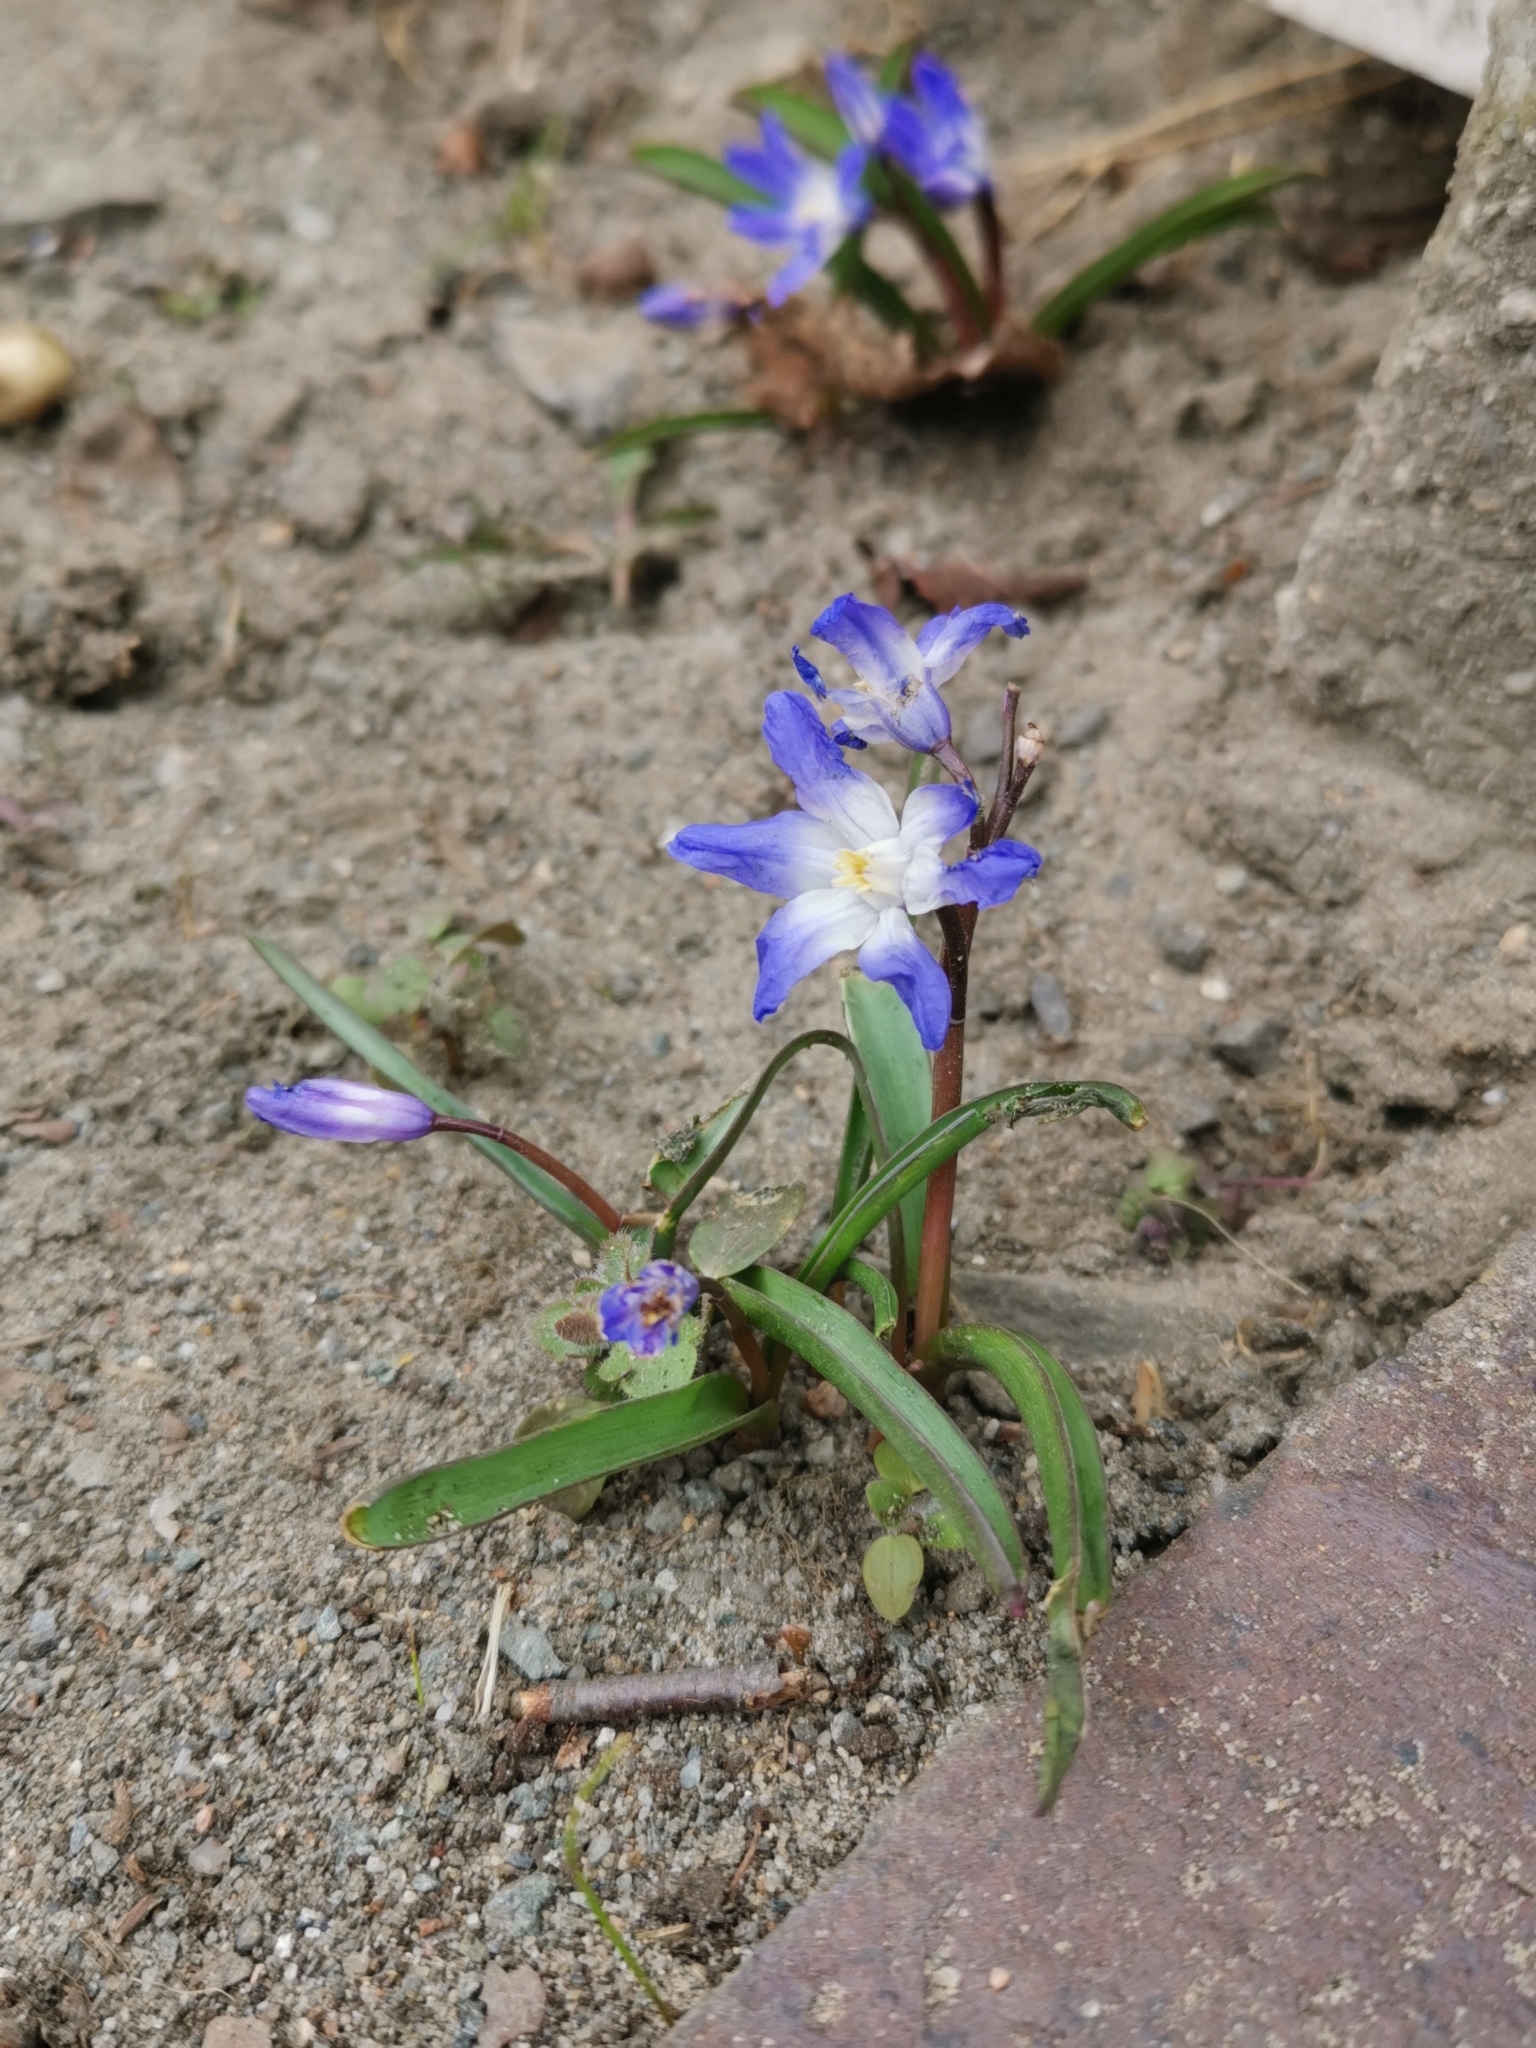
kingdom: Plantae
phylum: Tracheophyta
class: Liliopsida
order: Asparagales
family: Asparagaceae
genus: Scilla
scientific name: Scilla forbesii
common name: Glory-of-the-snow
